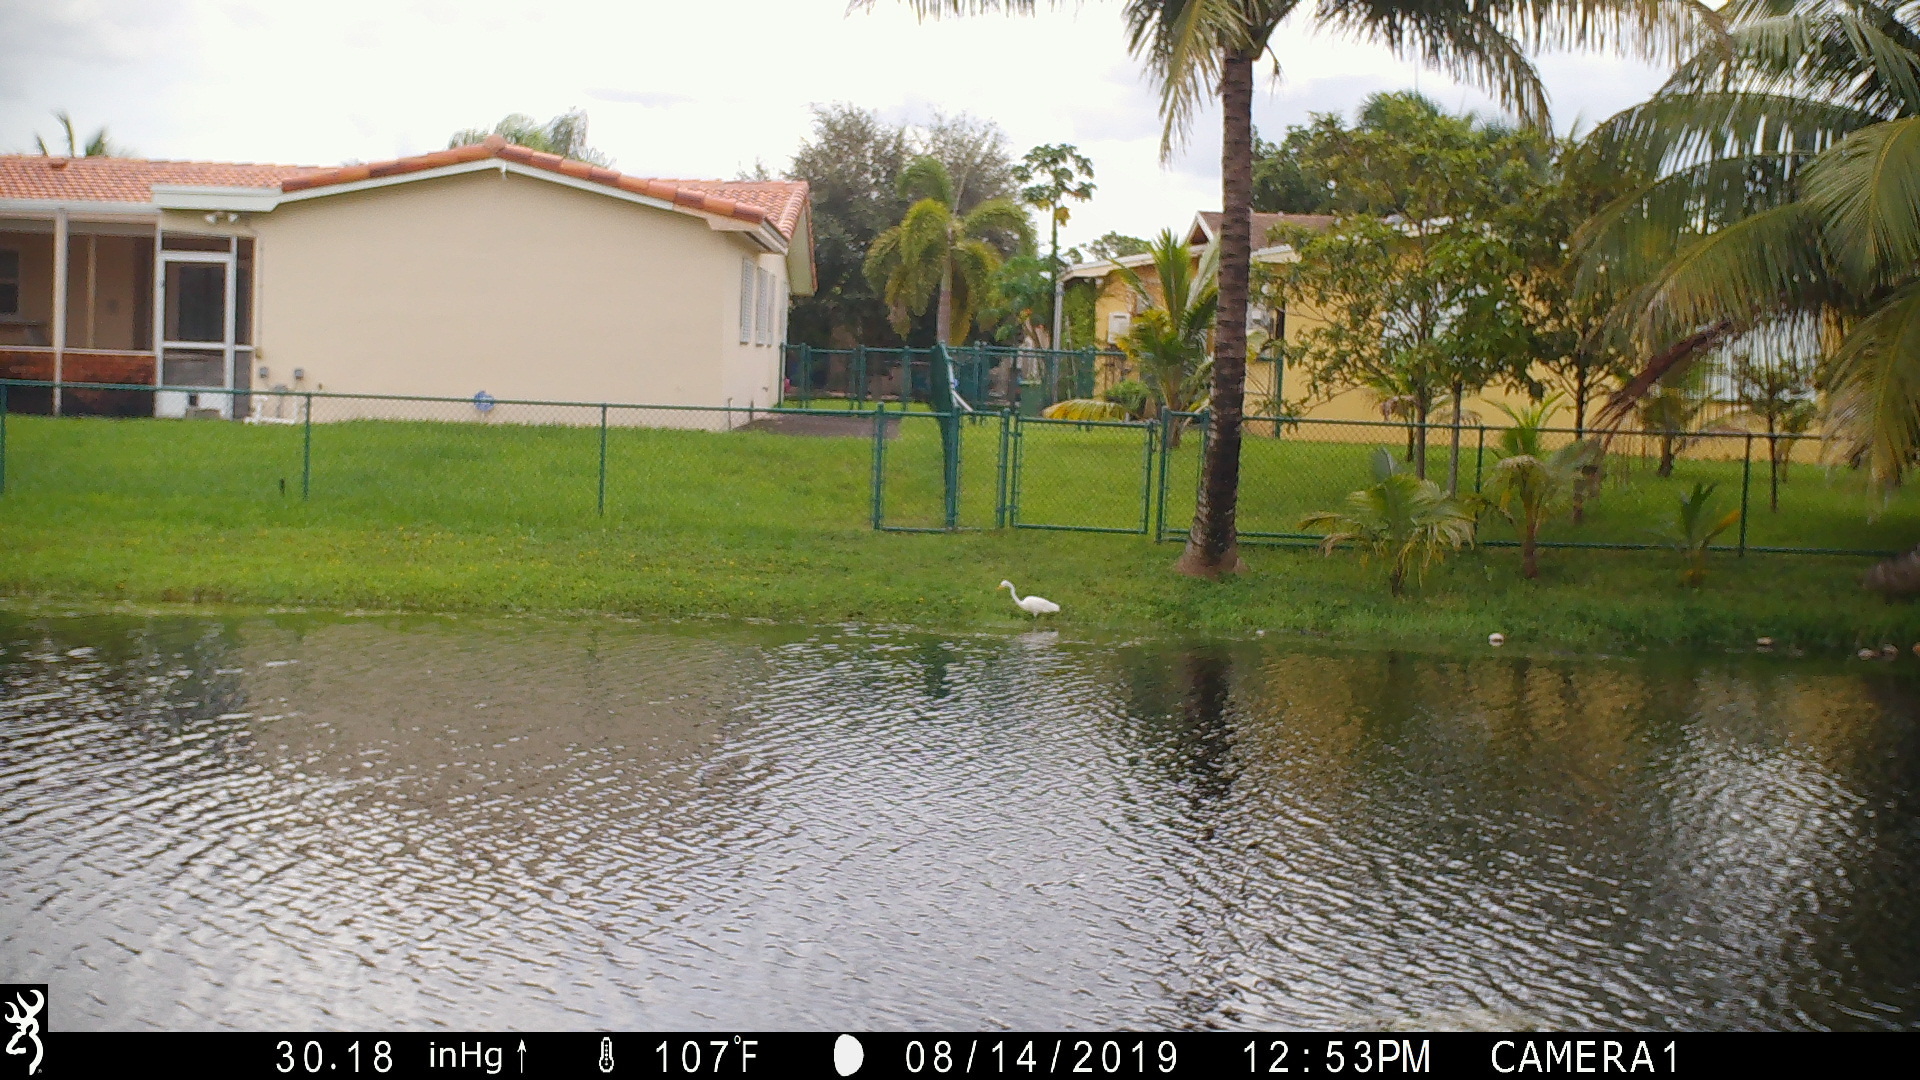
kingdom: Animalia
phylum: Chordata
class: Aves
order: Pelecaniformes
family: Ardeidae
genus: Ardea
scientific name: Ardea alba
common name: Great egret
